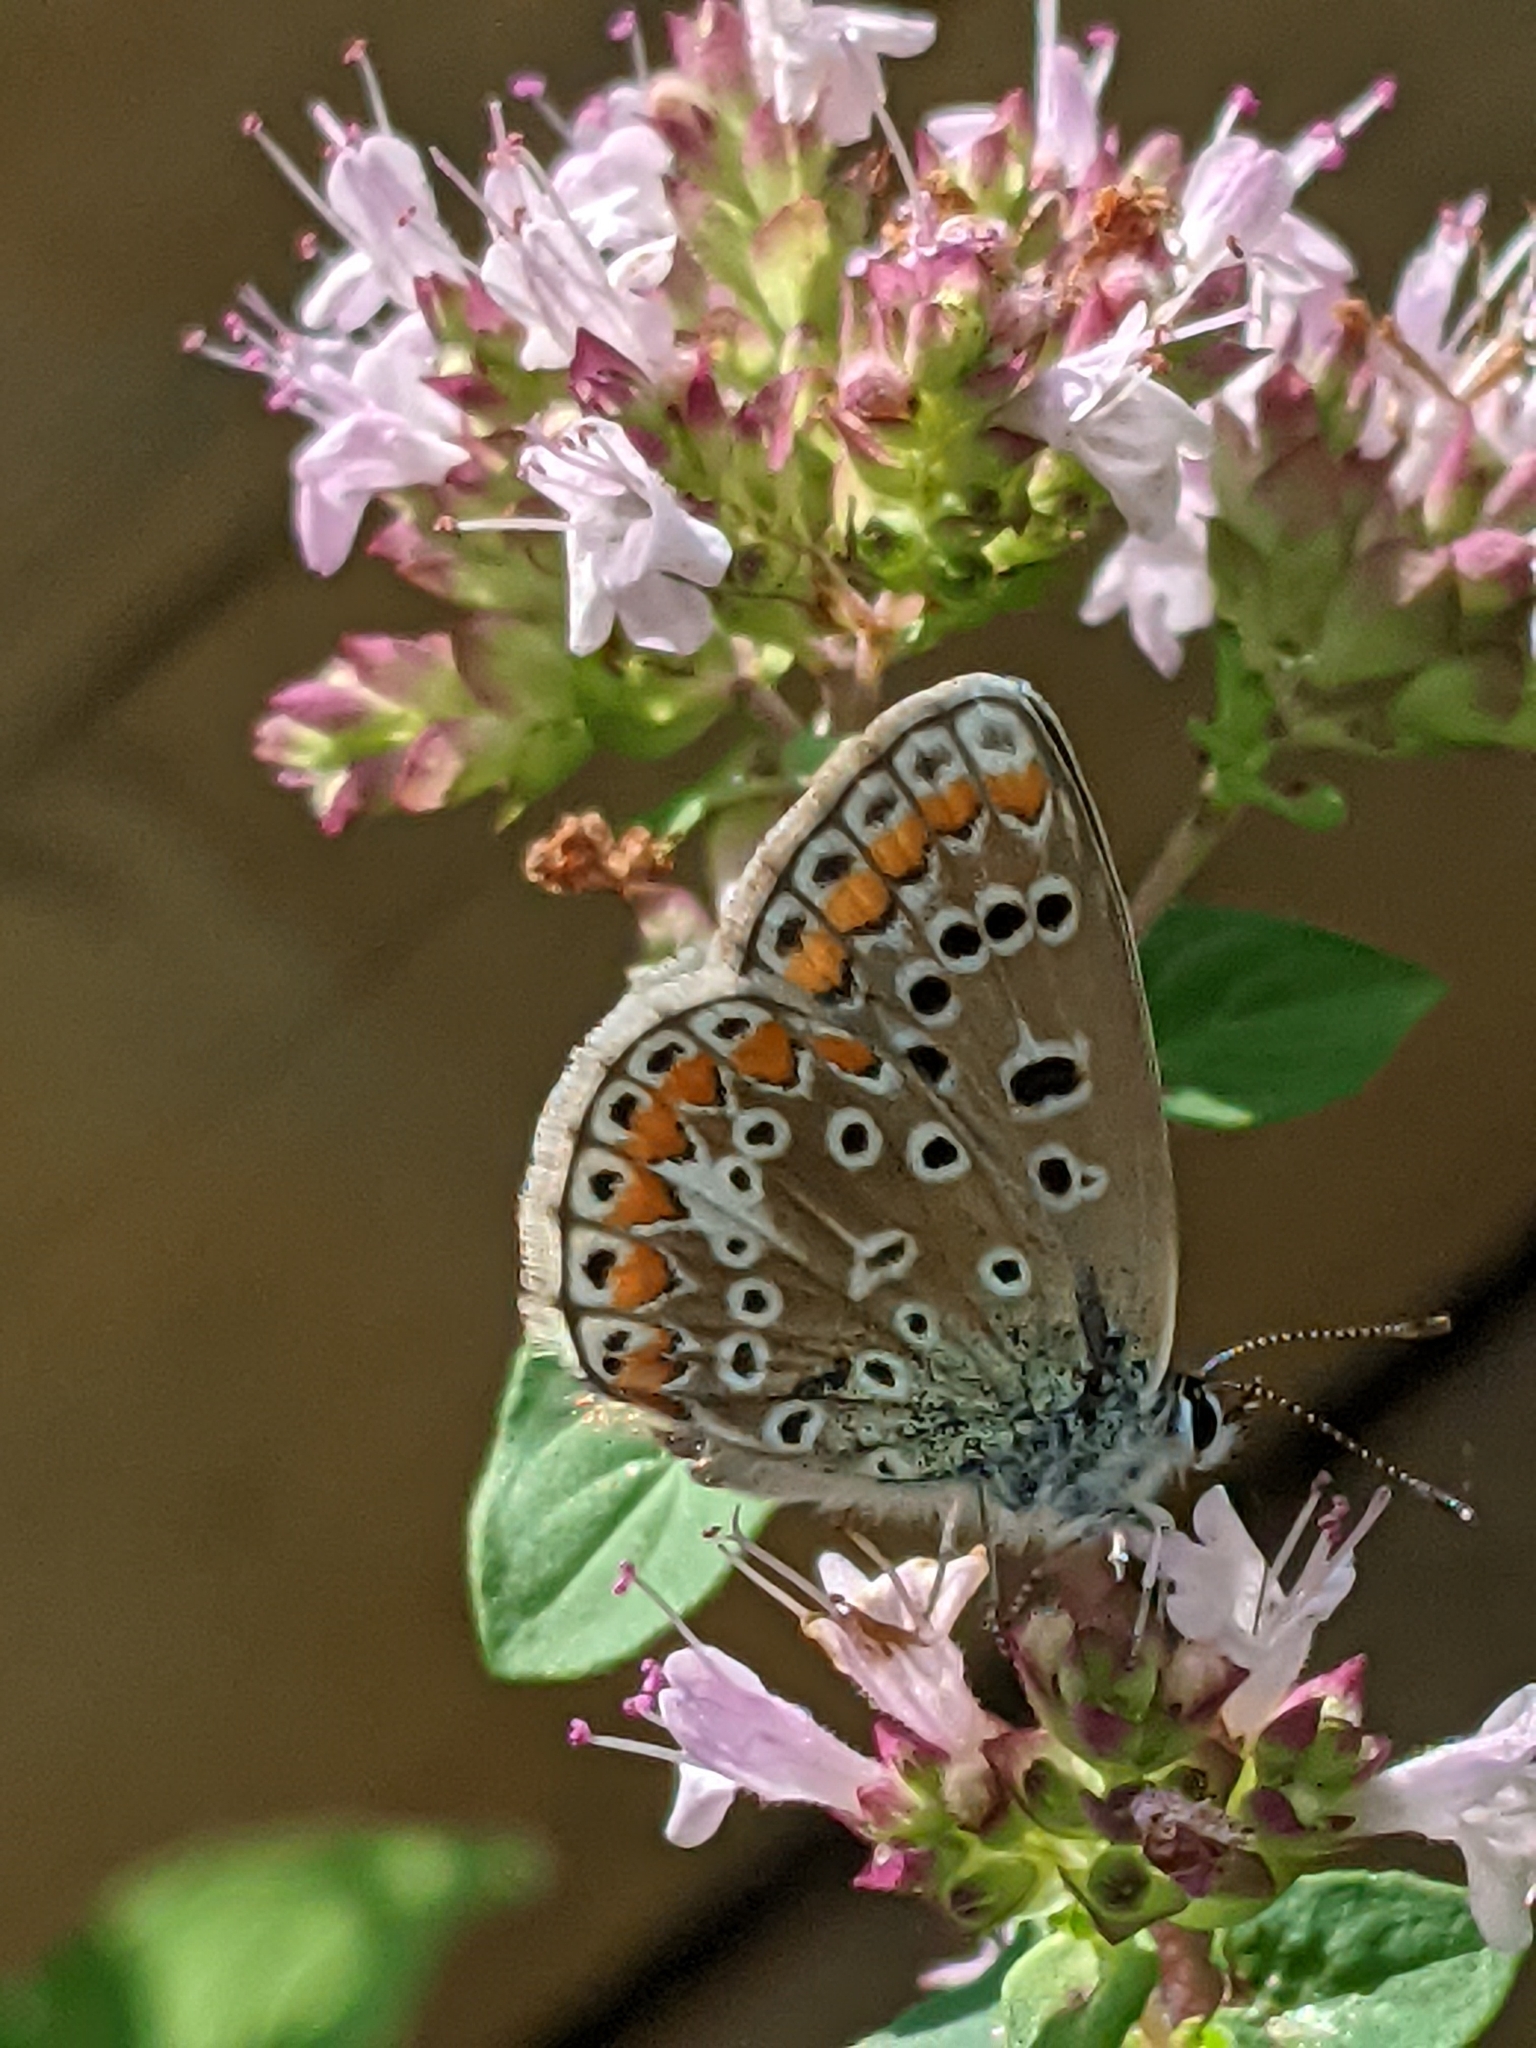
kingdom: Animalia
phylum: Arthropoda
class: Insecta
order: Lepidoptera
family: Lycaenidae
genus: Polyommatus
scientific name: Polyommatus icarus
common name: Common blue
